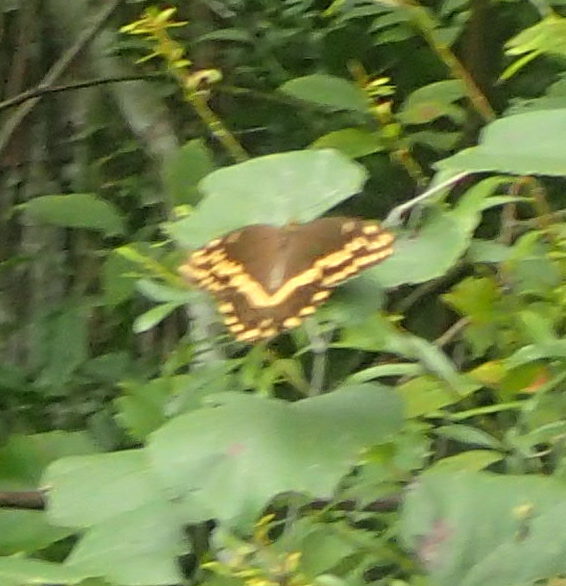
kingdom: Animalia
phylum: Arthropoda
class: Insecta
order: Lepidoptera
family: Papilionidae
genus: Papilio
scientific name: Papilio palamedes
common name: Palamedes swallowtail
